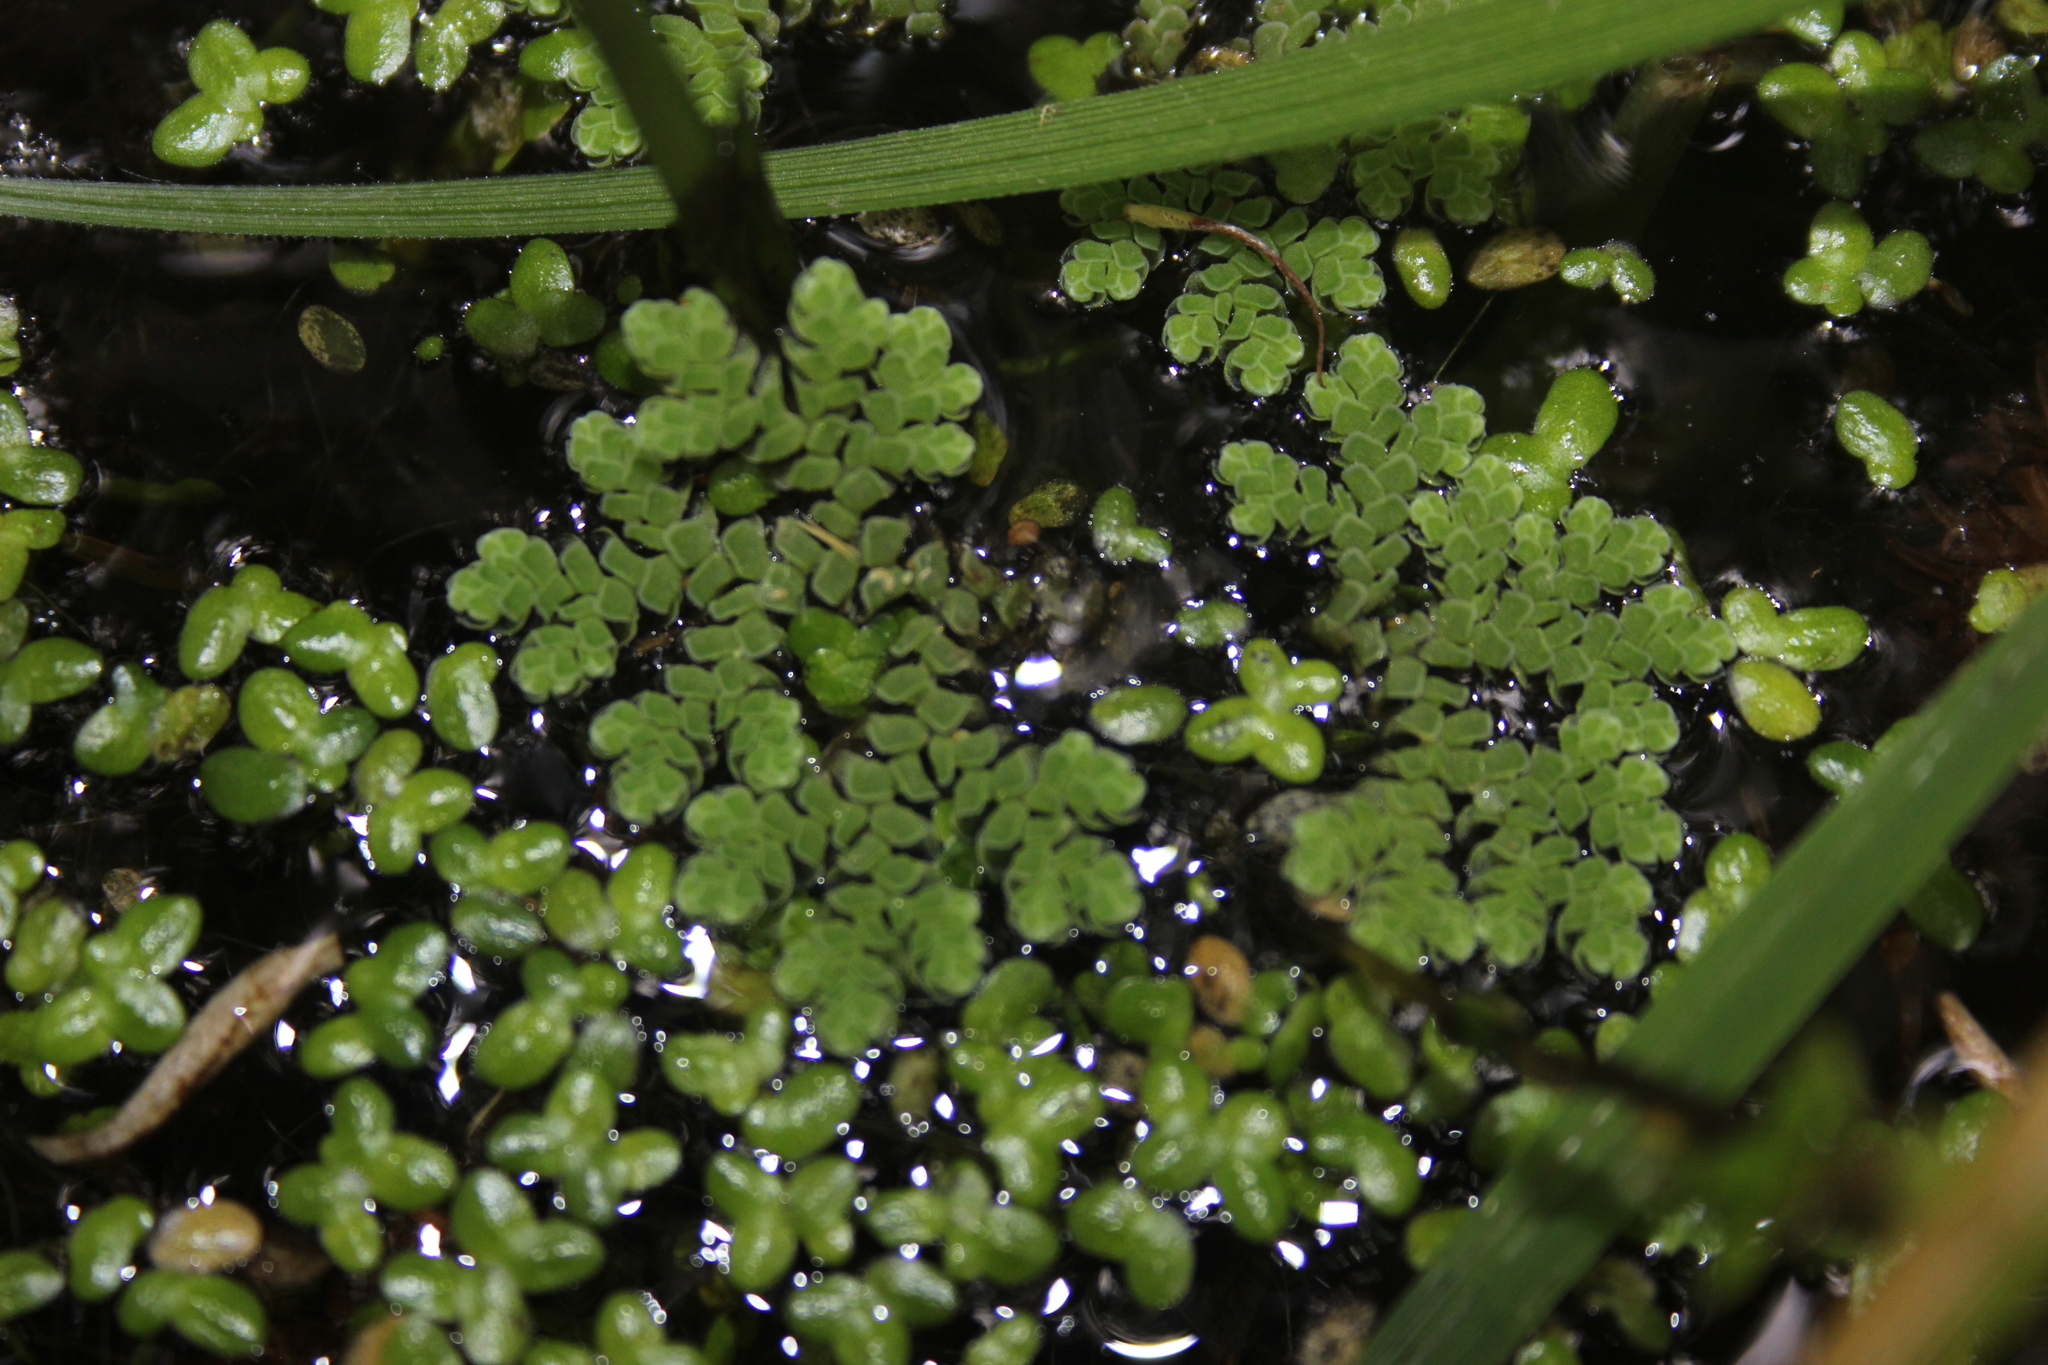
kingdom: Plantae
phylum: Tracheophyta
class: Polypodiopsida
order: Salviniales
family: Salviniaceae
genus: Azolla
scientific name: Azolla rubra
